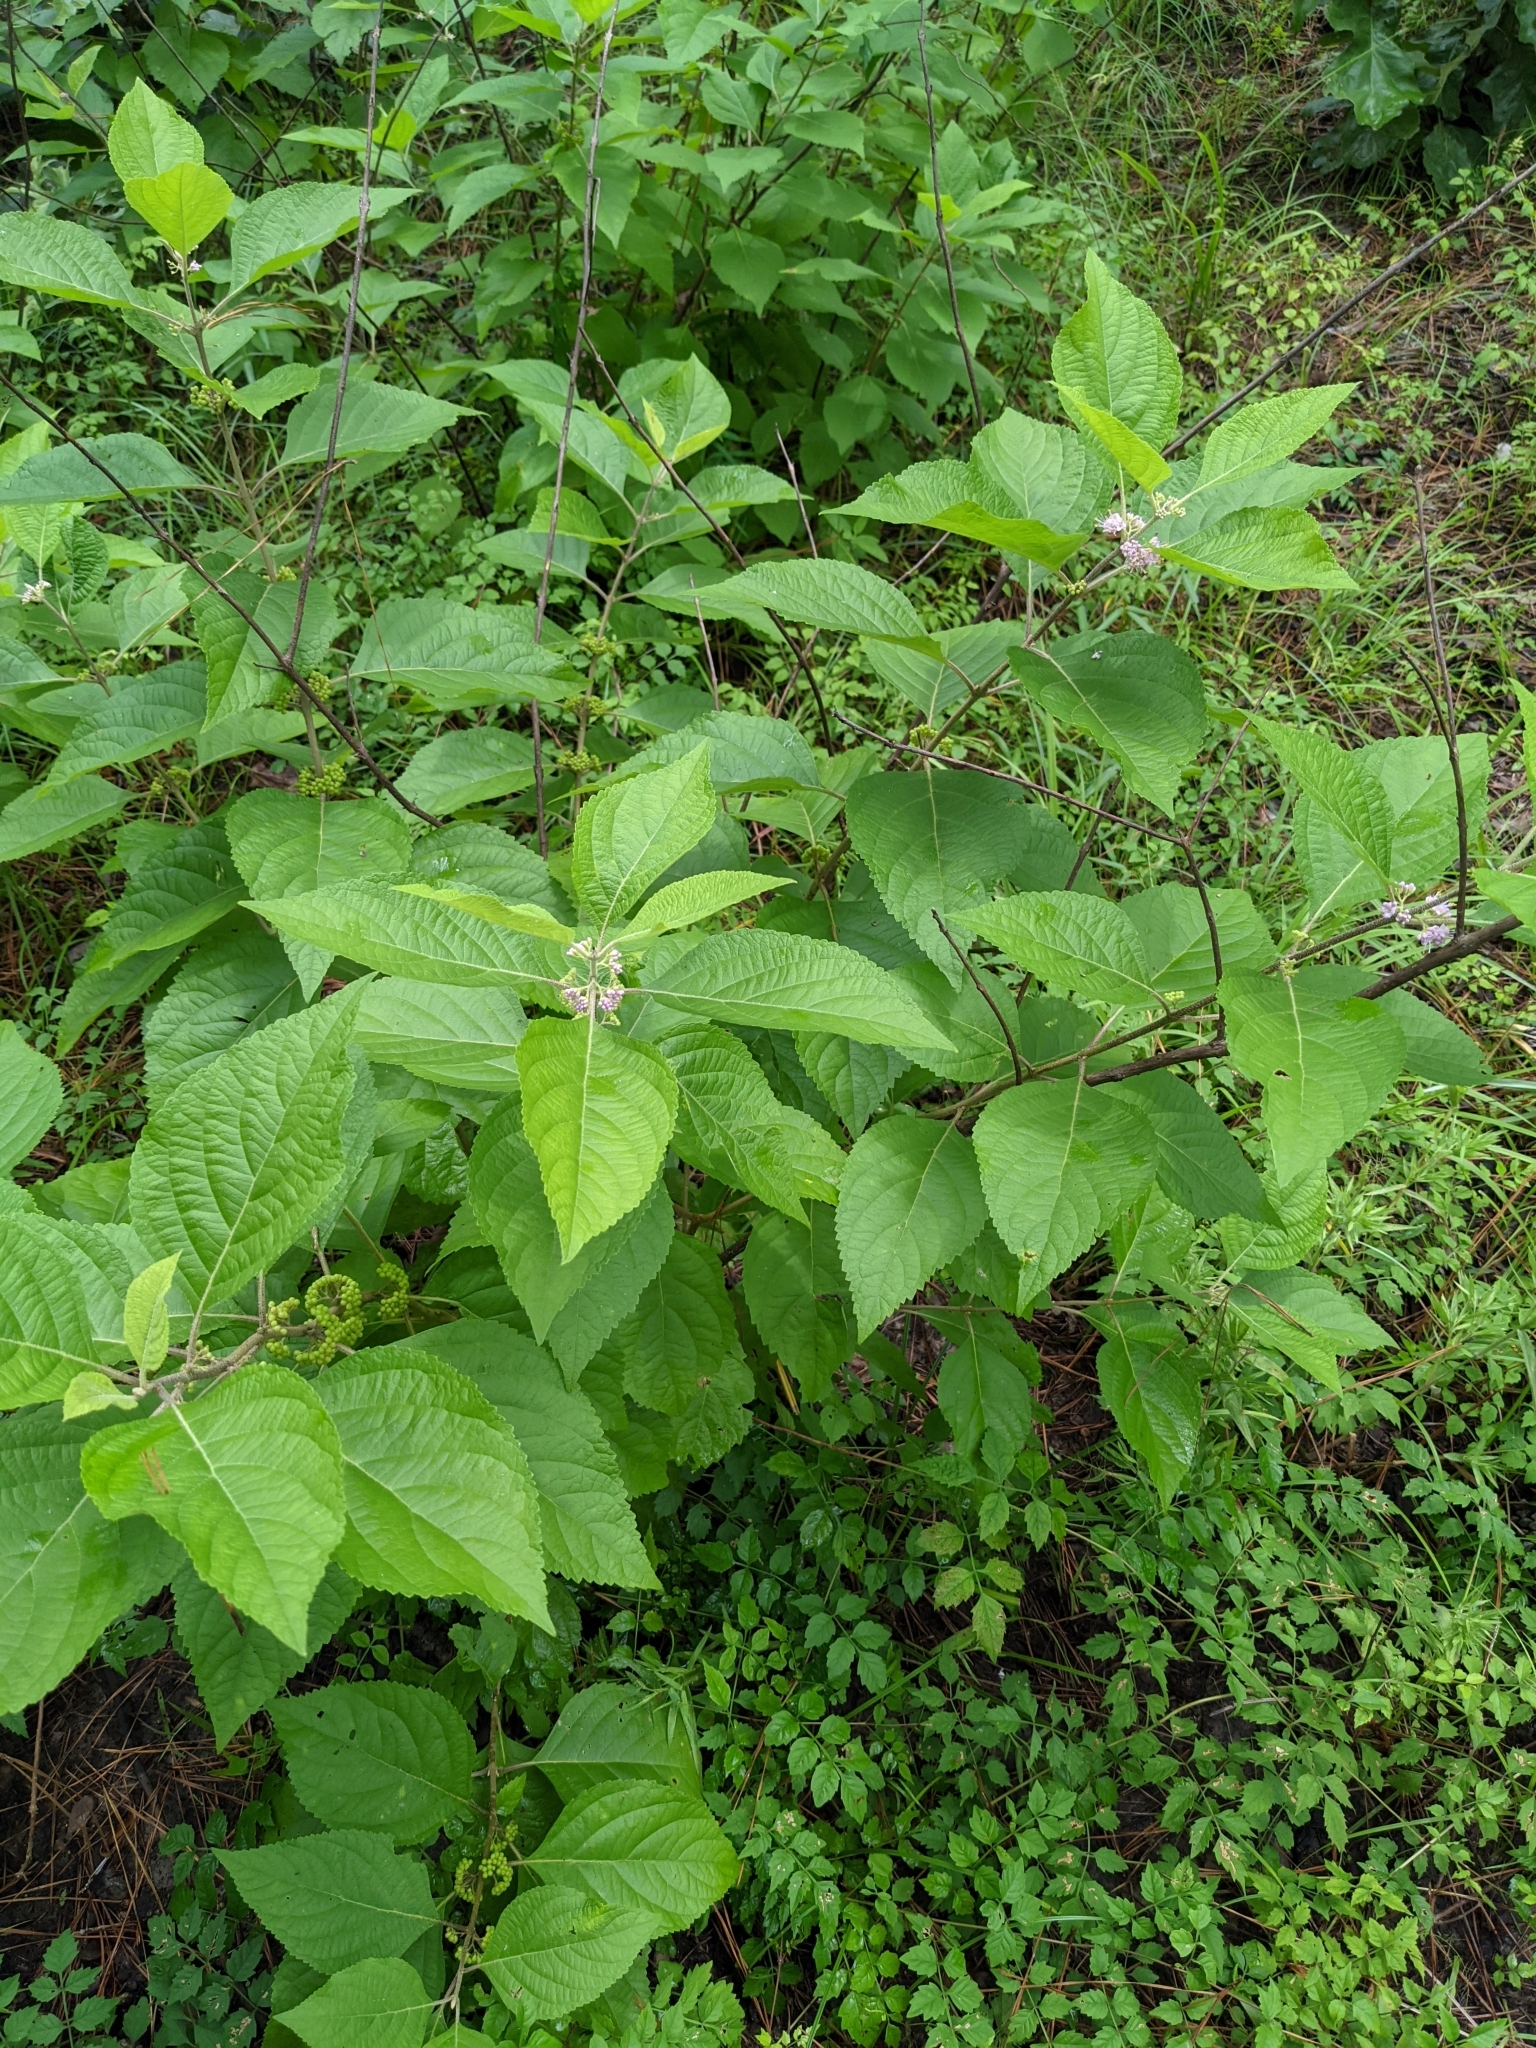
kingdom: Plantae
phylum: Tracheophyta
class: Magnoliopsida
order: Lamiales
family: Lamiaceae
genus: Callicarpa
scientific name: Callicarpa americana
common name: American beautyberry
